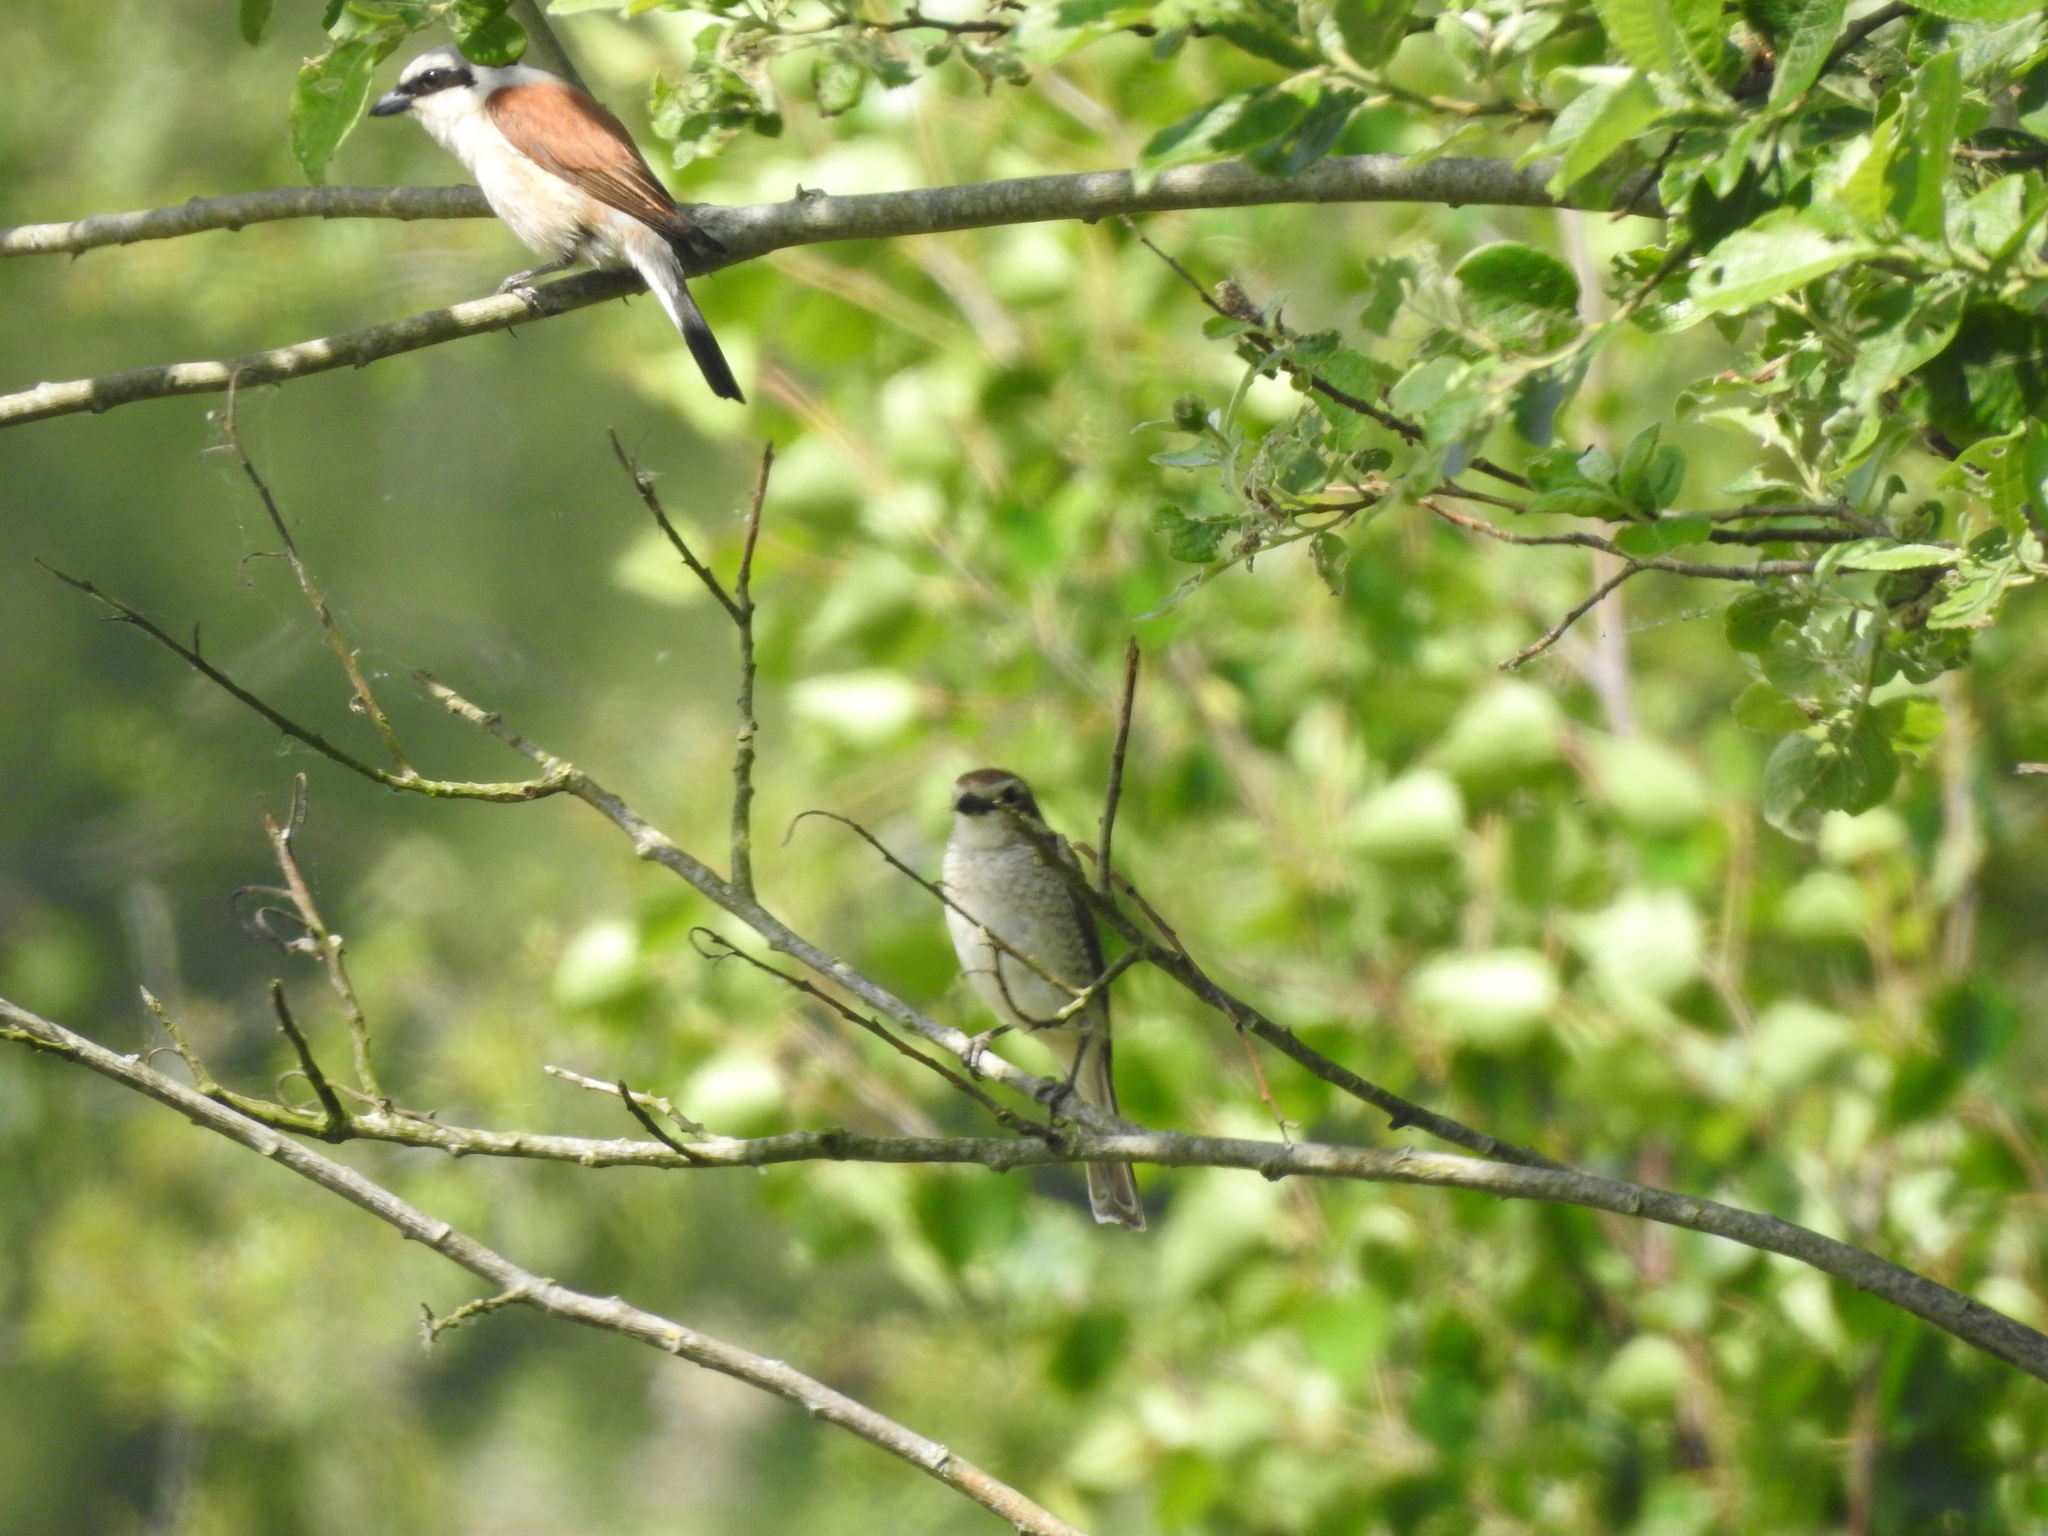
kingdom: Animalia
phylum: Chordata
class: Aves
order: Passeriformes
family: Laniidae
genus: Lanius
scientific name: Lanius collurio
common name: Red-backed shrike
